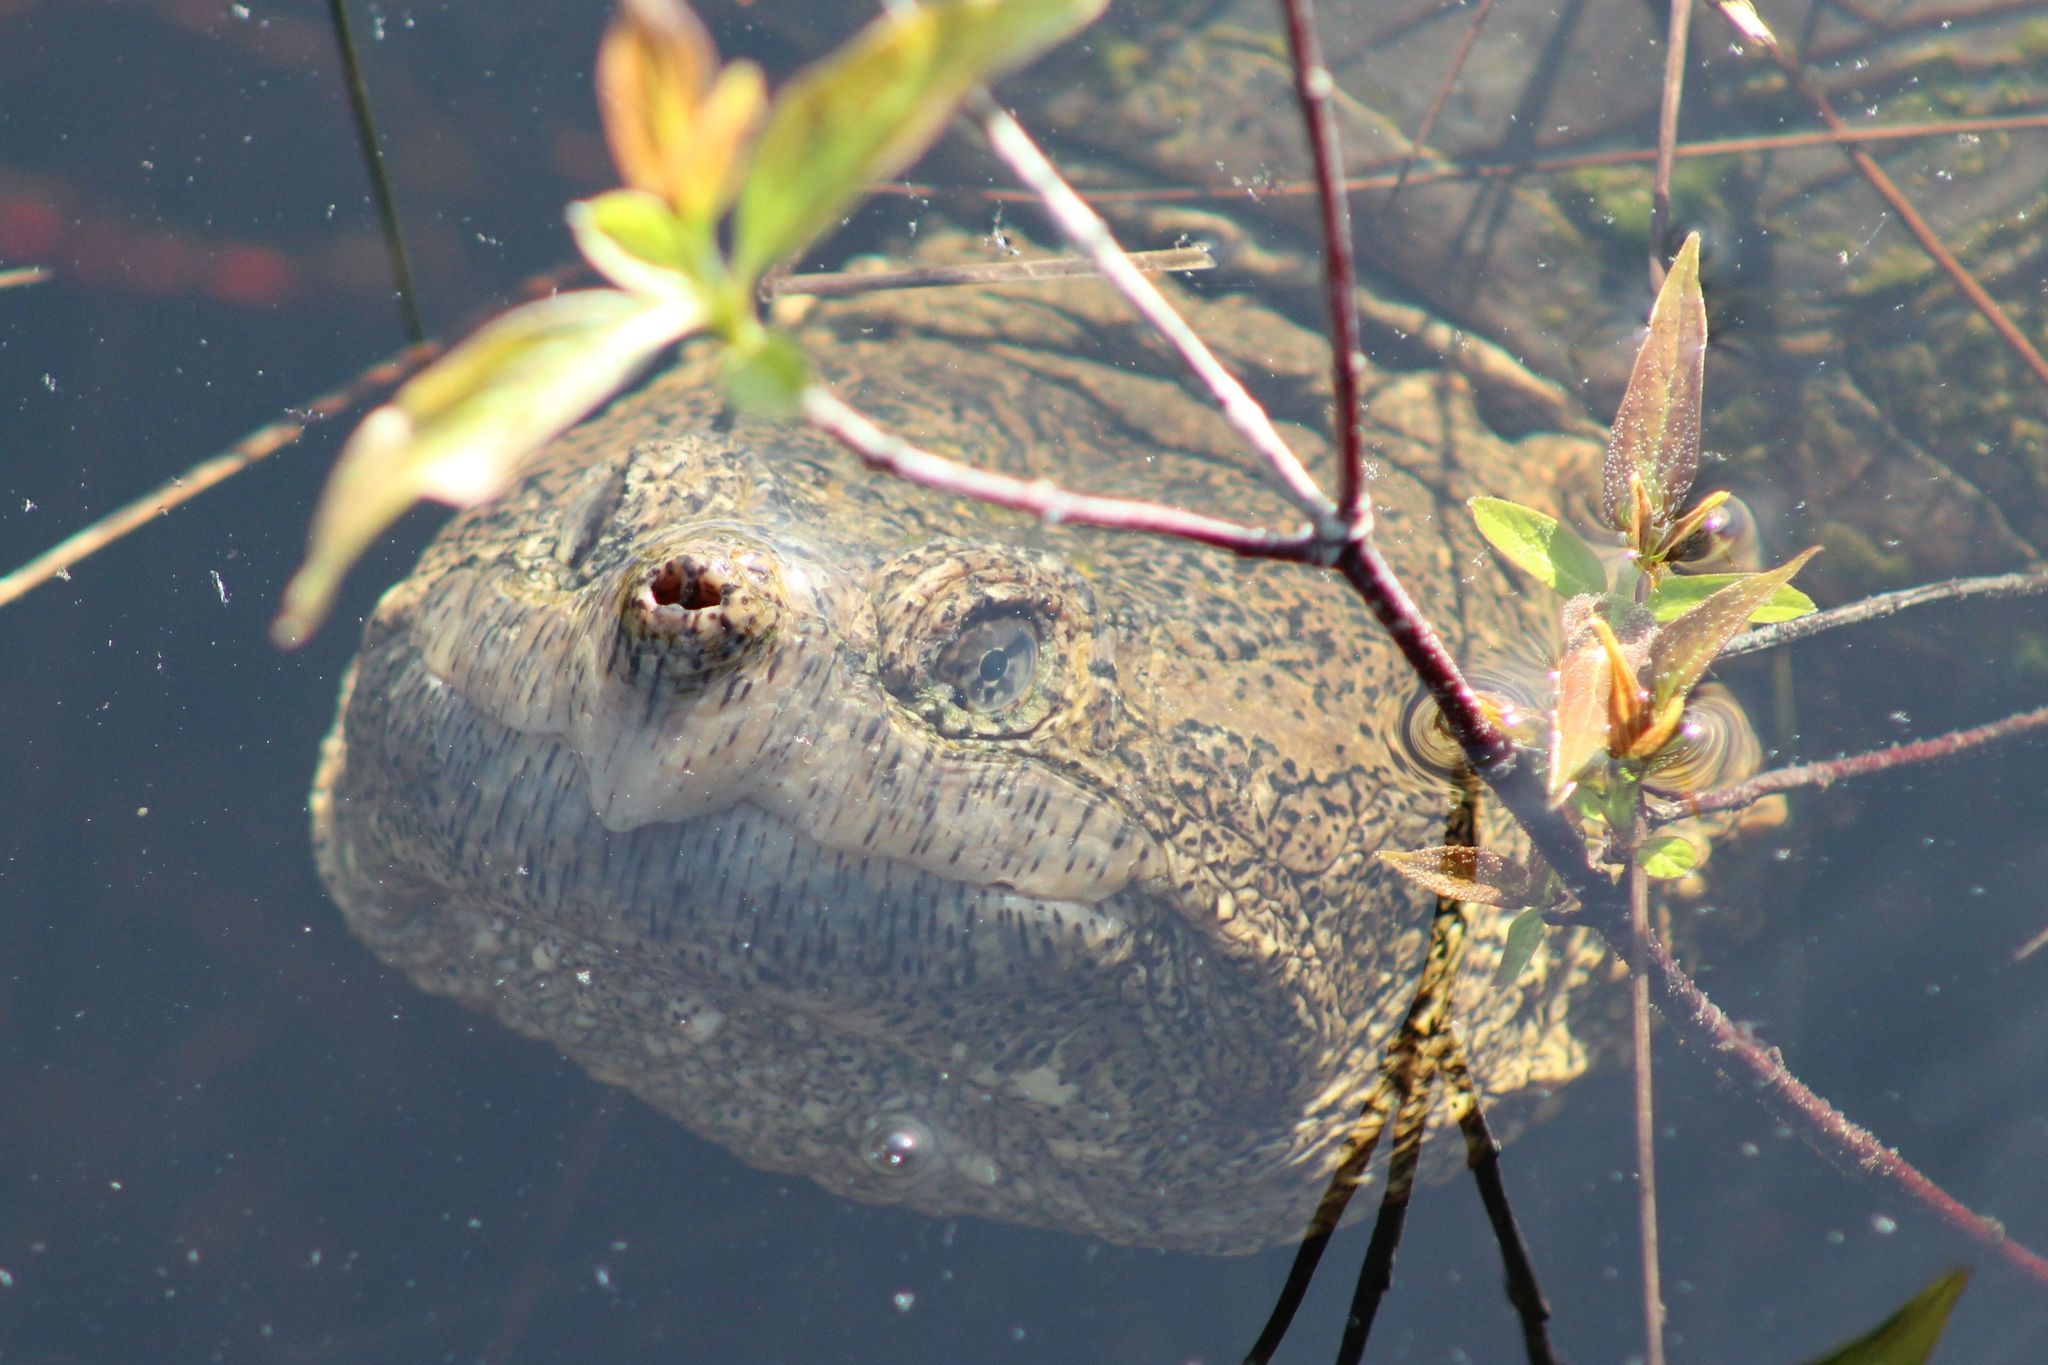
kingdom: Animalia
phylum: Chordata
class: Testudines
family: Chelydridae
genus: Chelydra
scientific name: Chelydra serpentina
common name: Common snapping turtle
